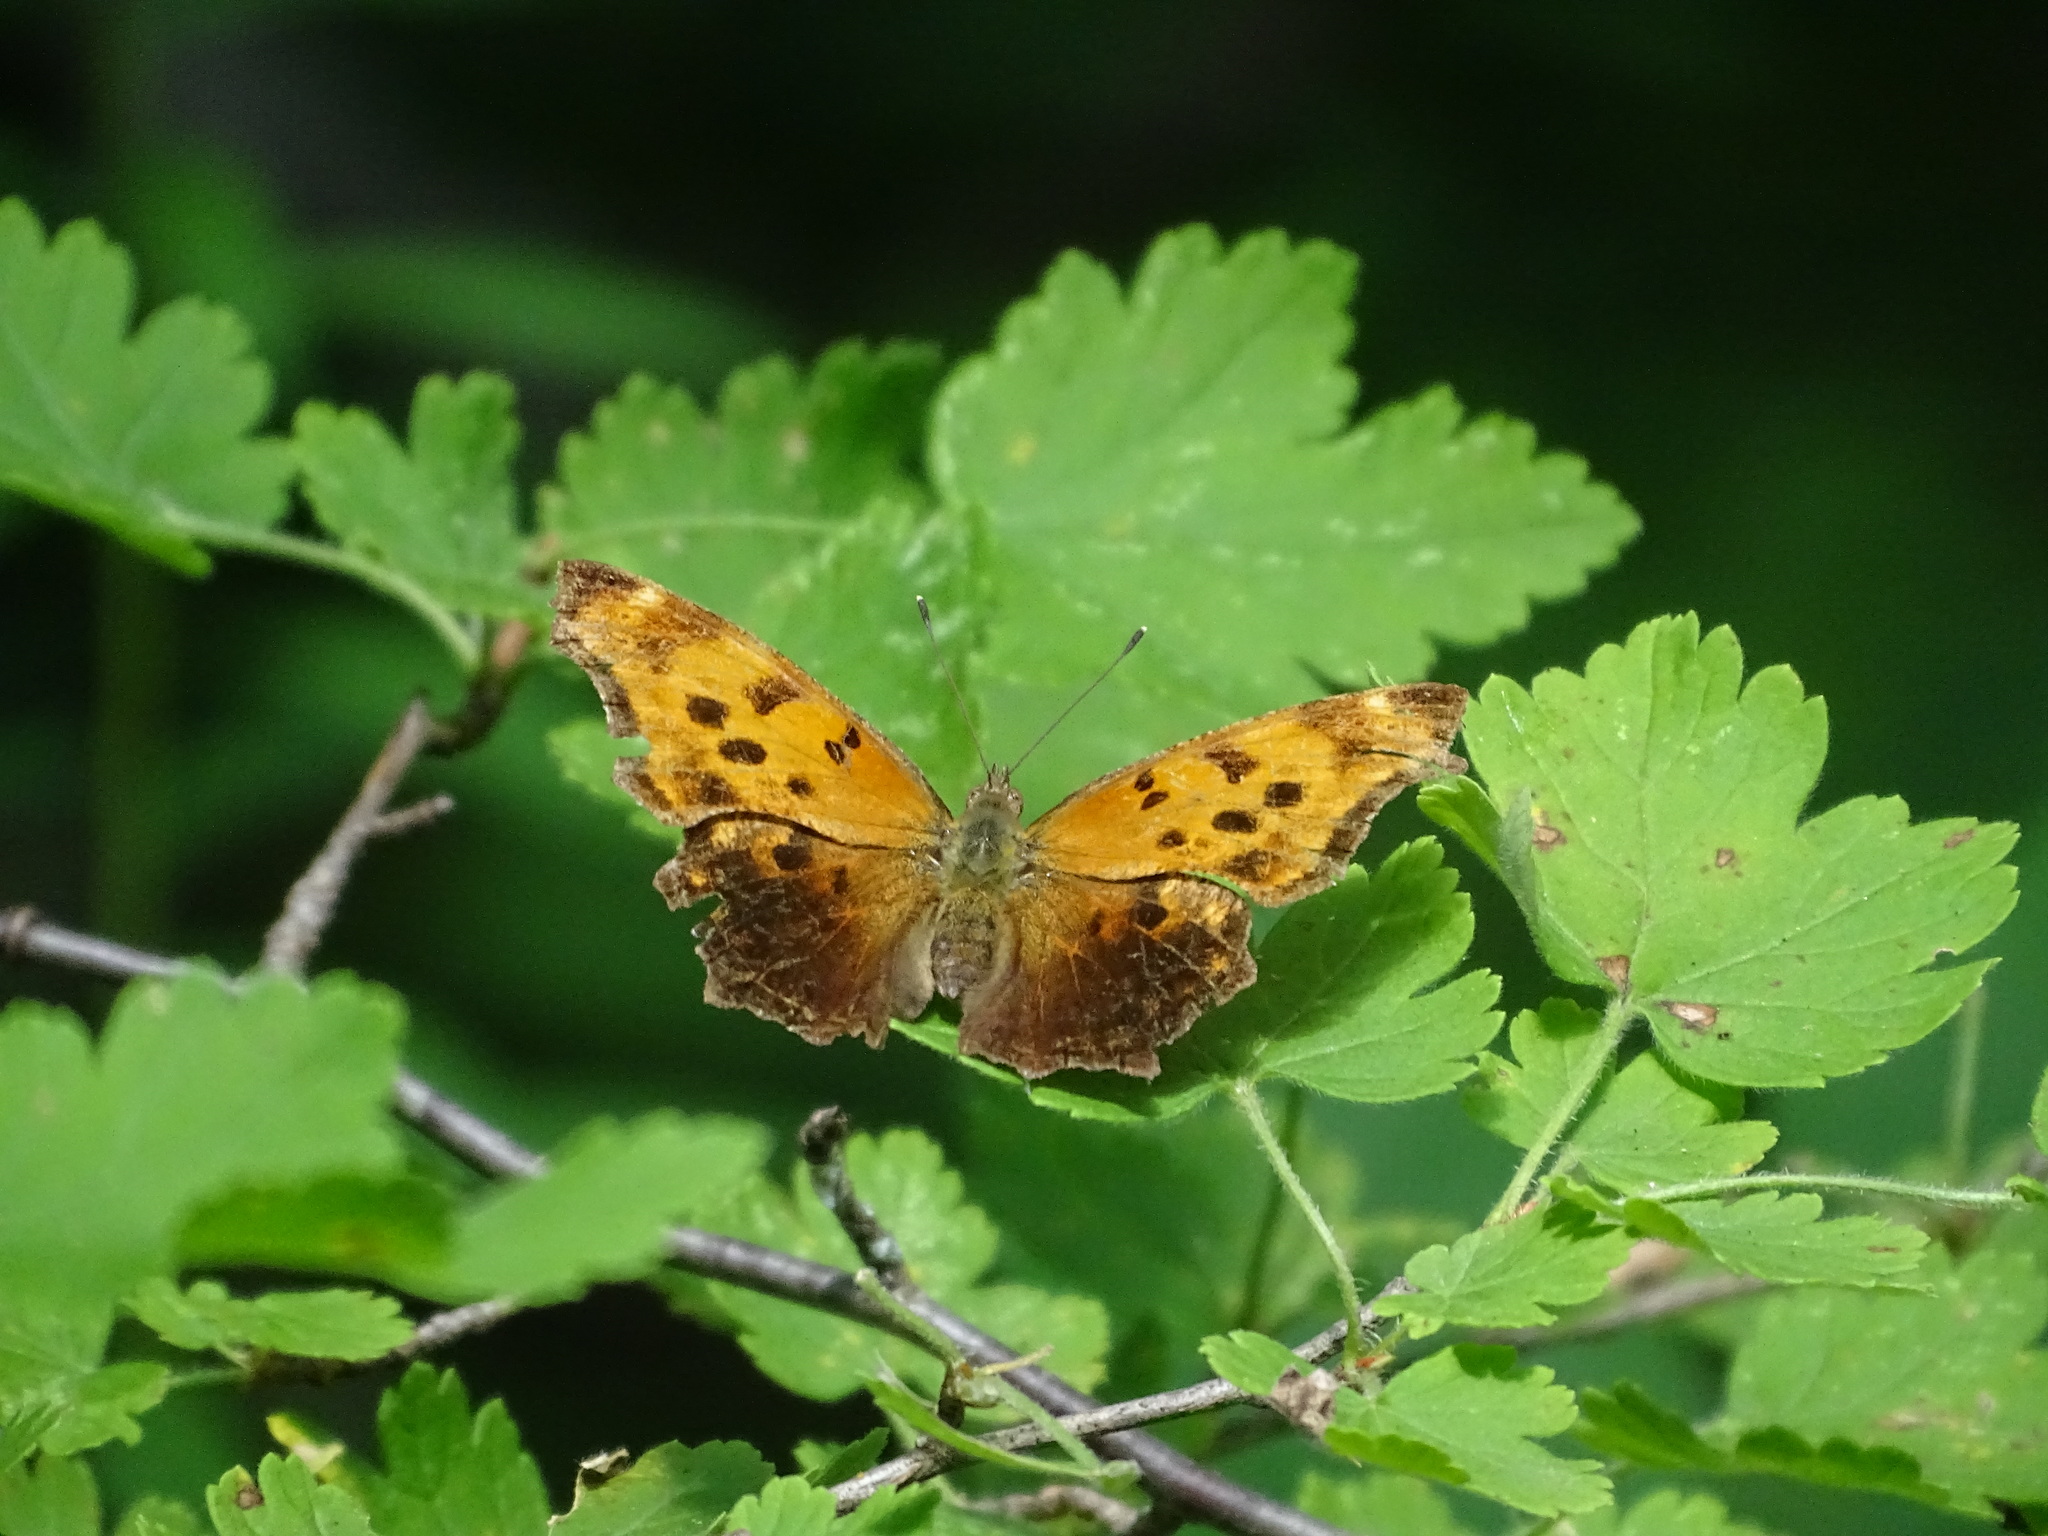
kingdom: Animalia
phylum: Arthropoda
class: Insecta
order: Lepidoptera
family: Nymphalidae
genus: Polygonia
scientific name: Polygonia comma
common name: Eastern comma
